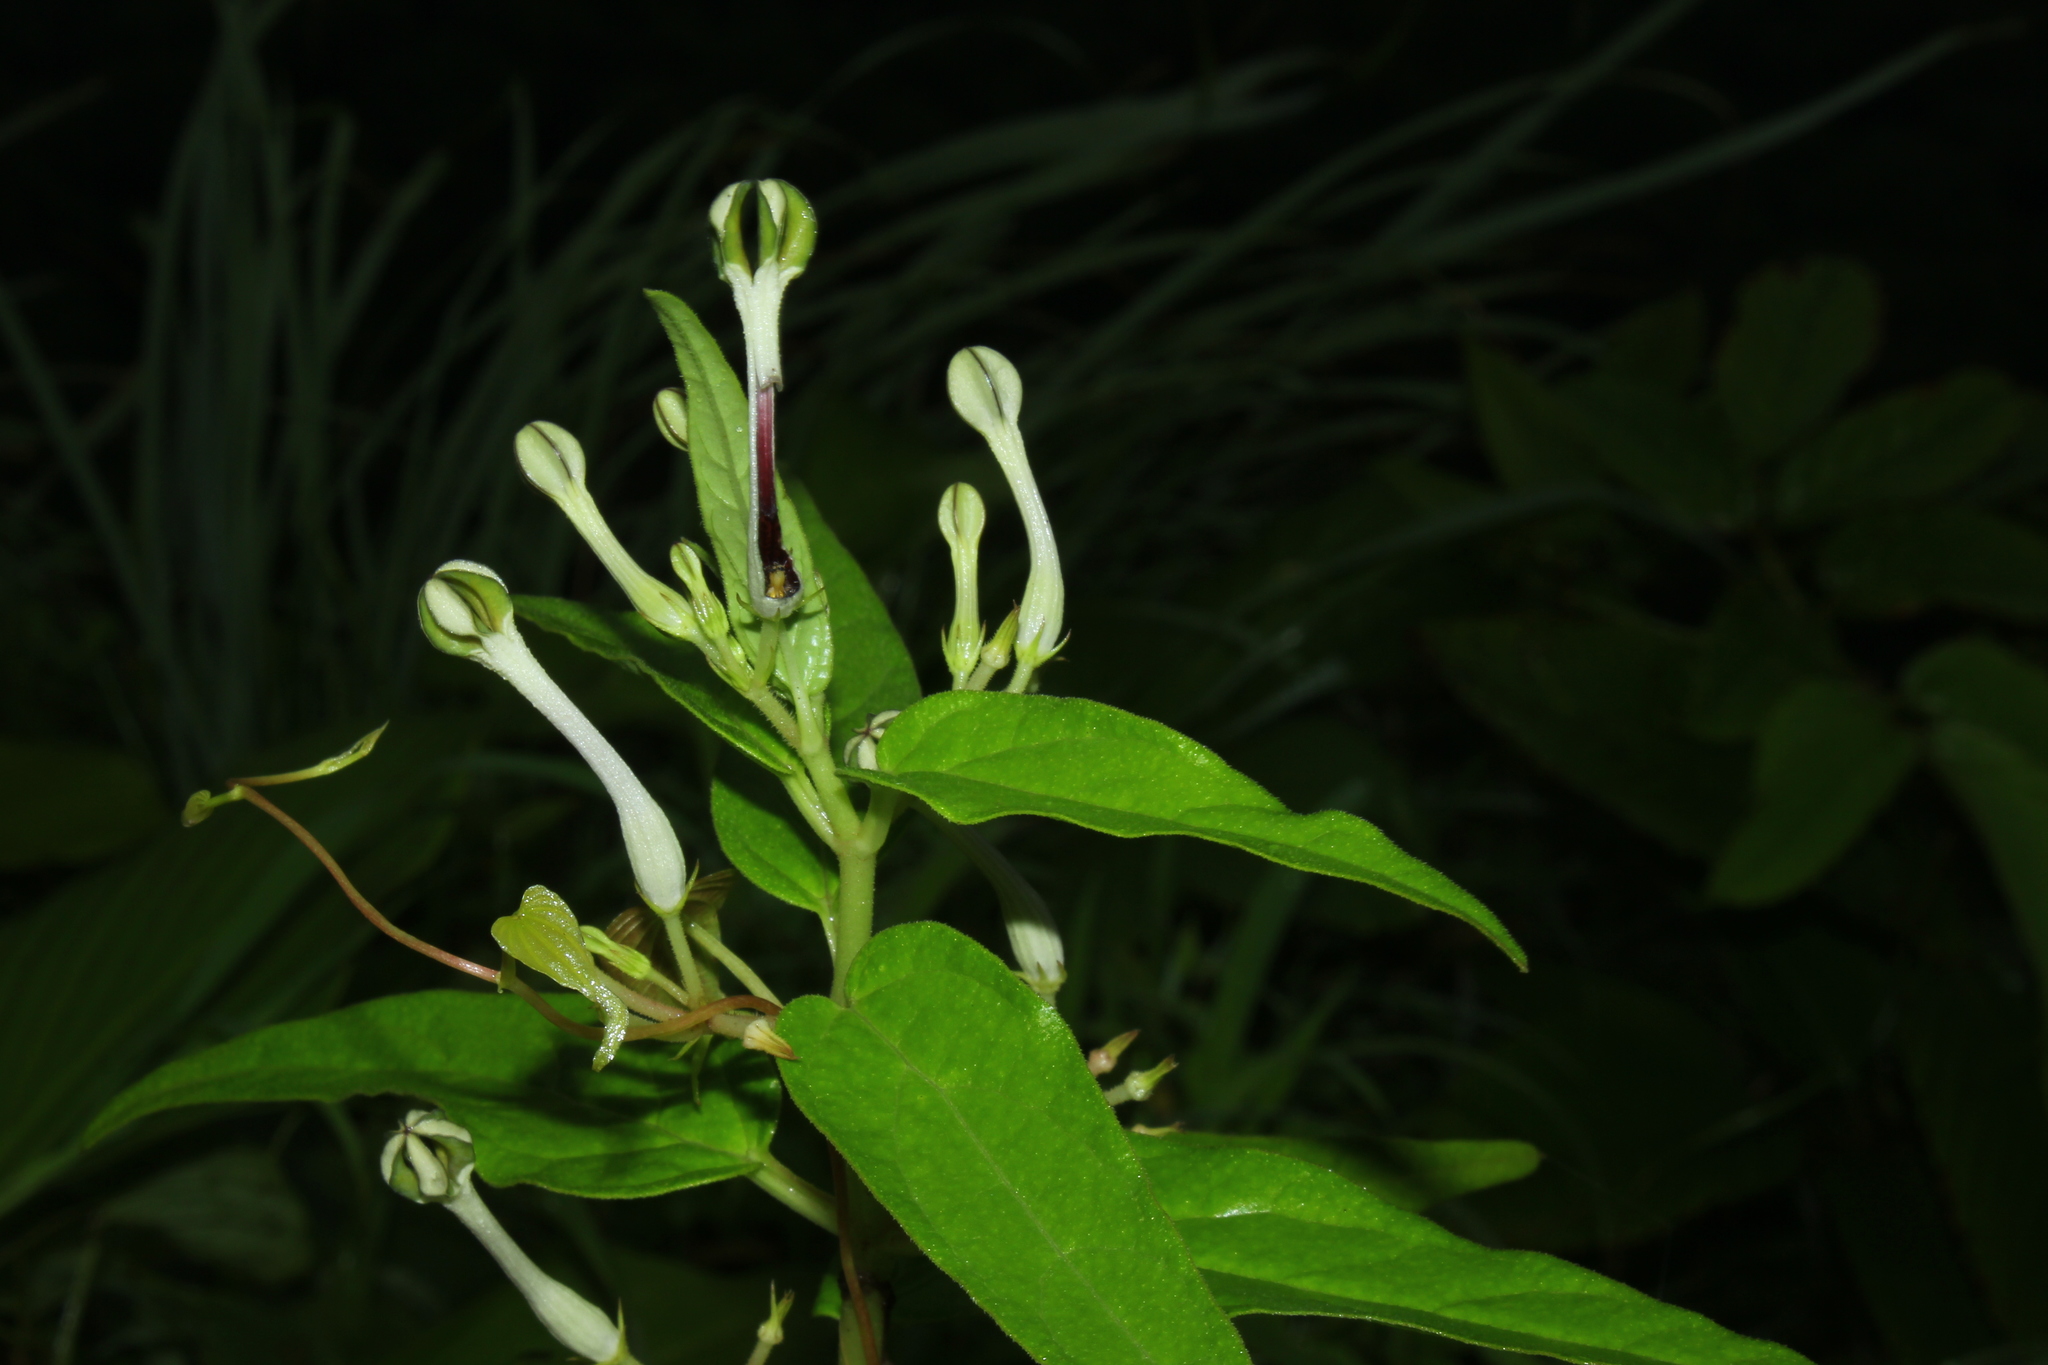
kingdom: Plantae
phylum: Tracheophyta
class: Magnoliopsida
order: Gentianales
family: Apocynaceae
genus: Ceropegia
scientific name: Ceropegia lawii
